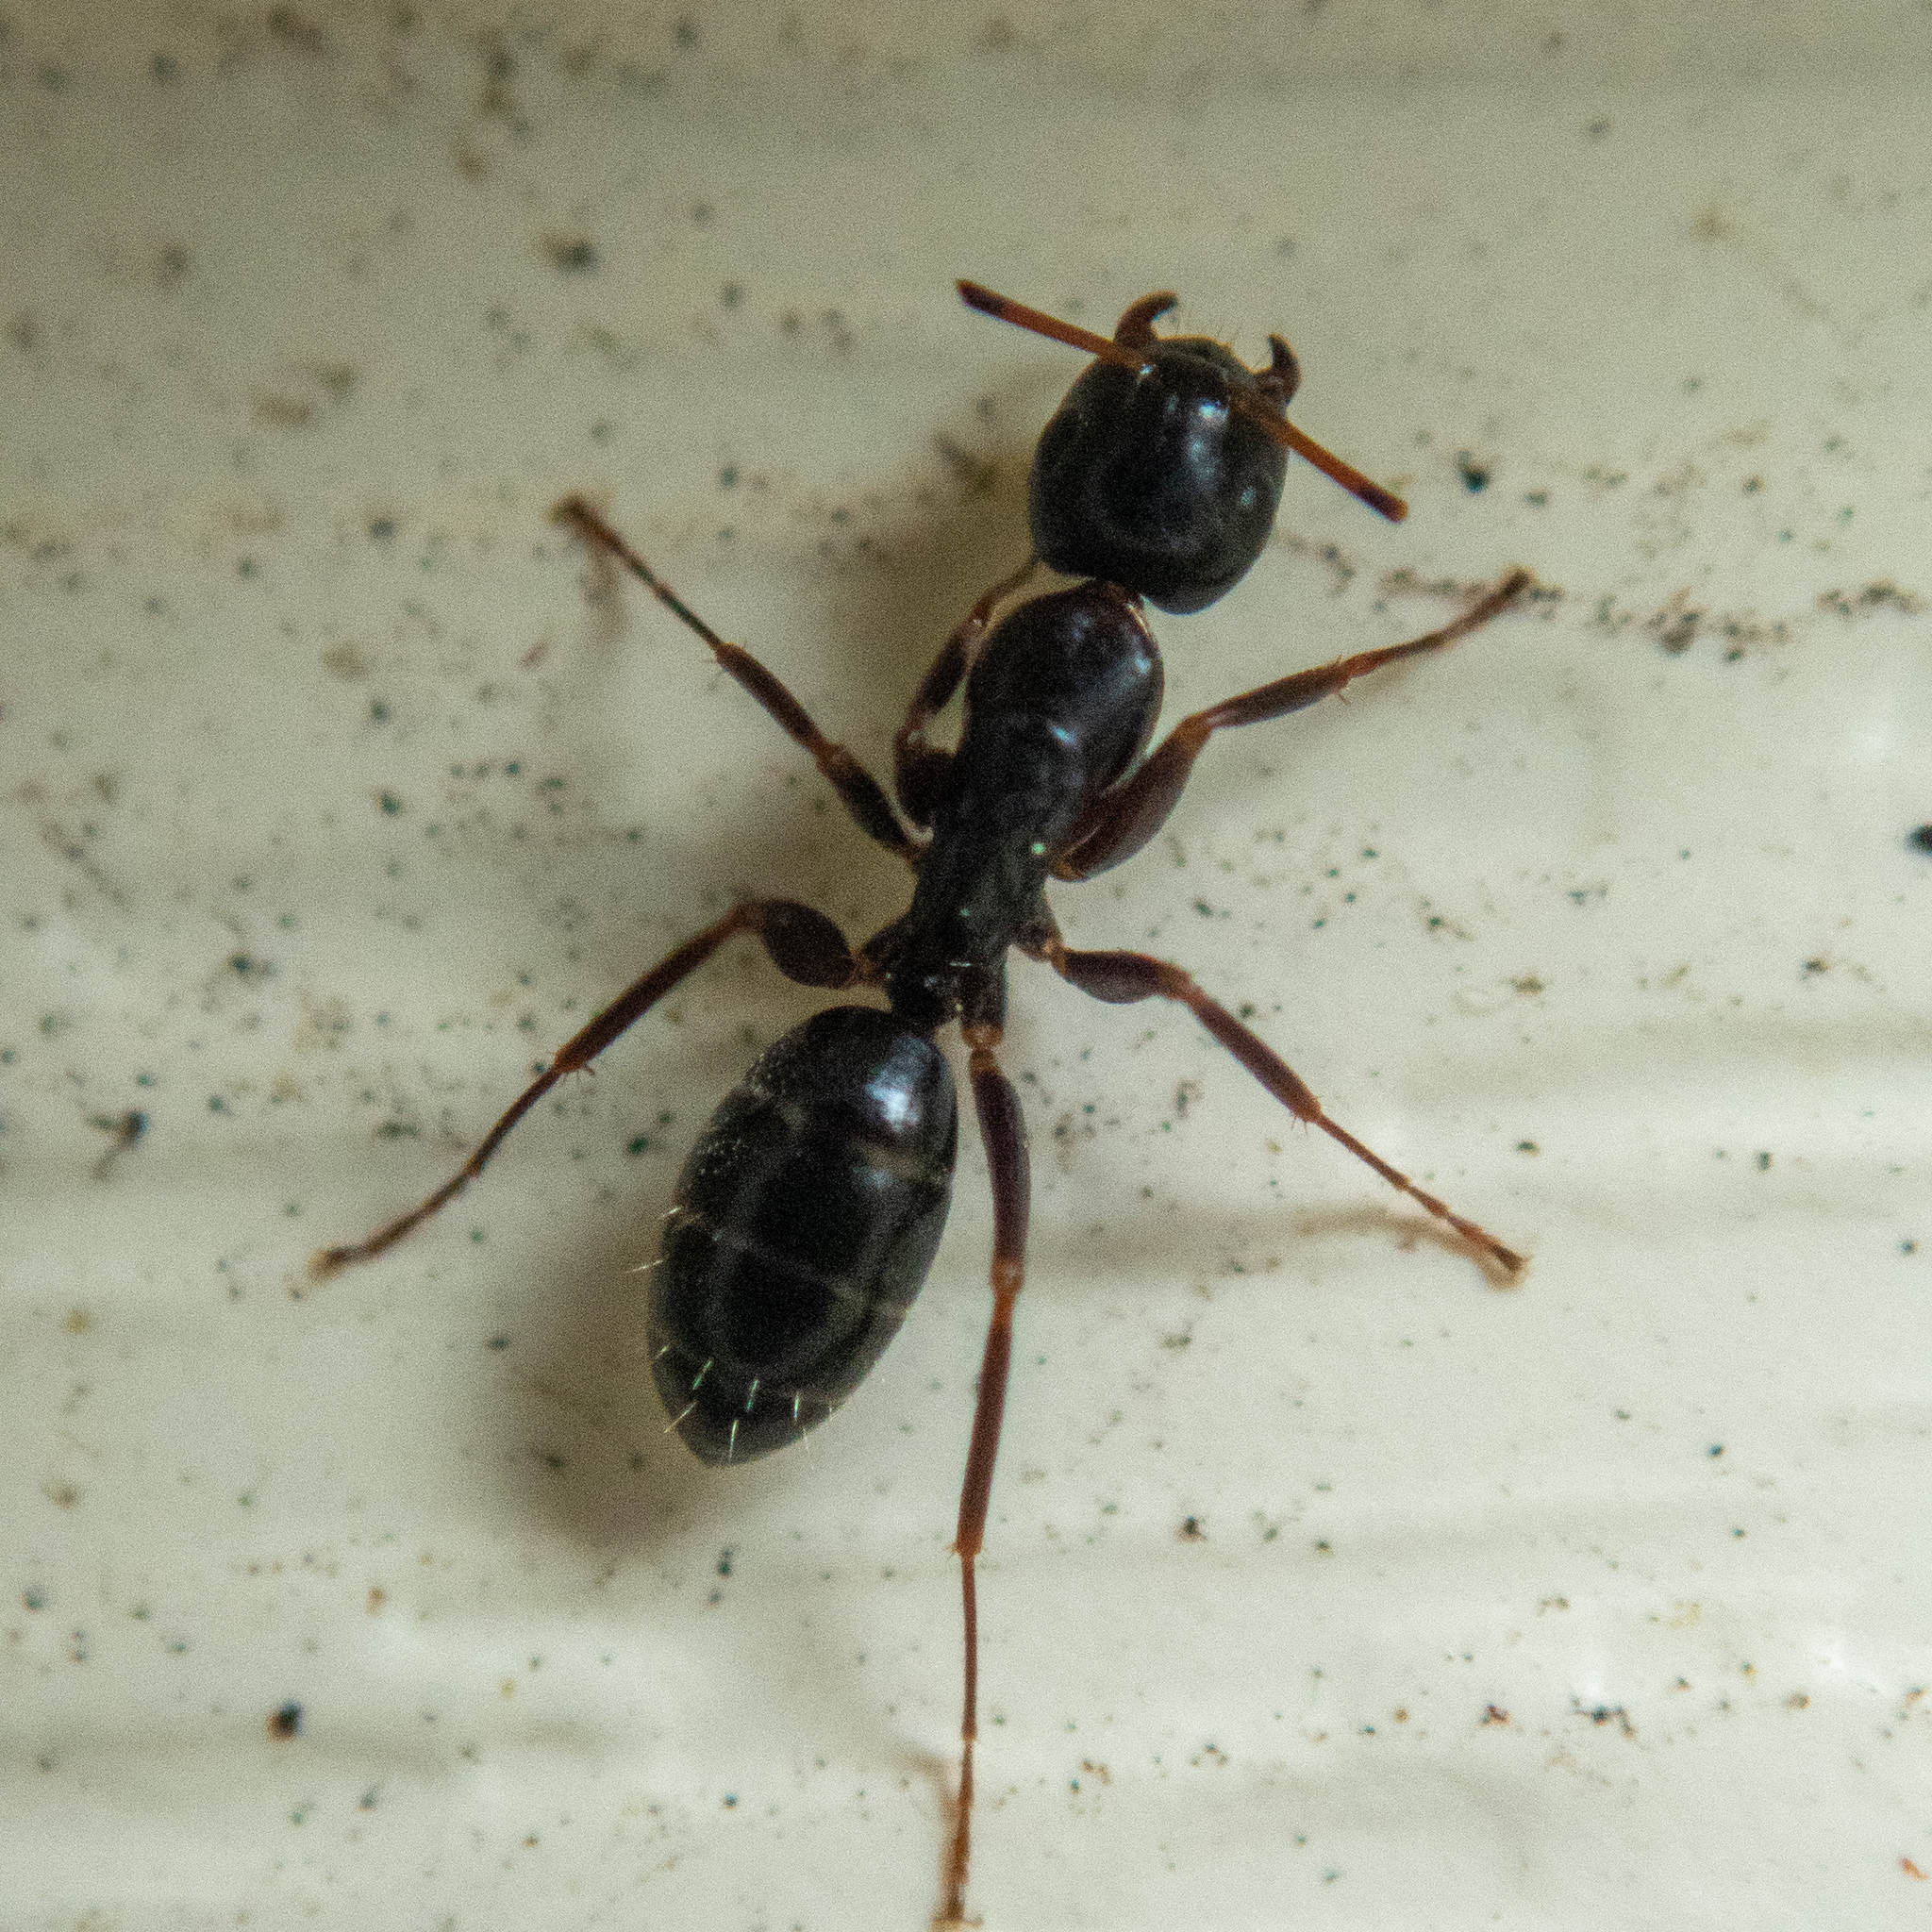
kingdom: Animalia
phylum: Arthropoda
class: Insecta
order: Hymenoptera
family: Formicidae
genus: Camponotus
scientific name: Camponotus nearcticus
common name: Smaller carpenter ant
